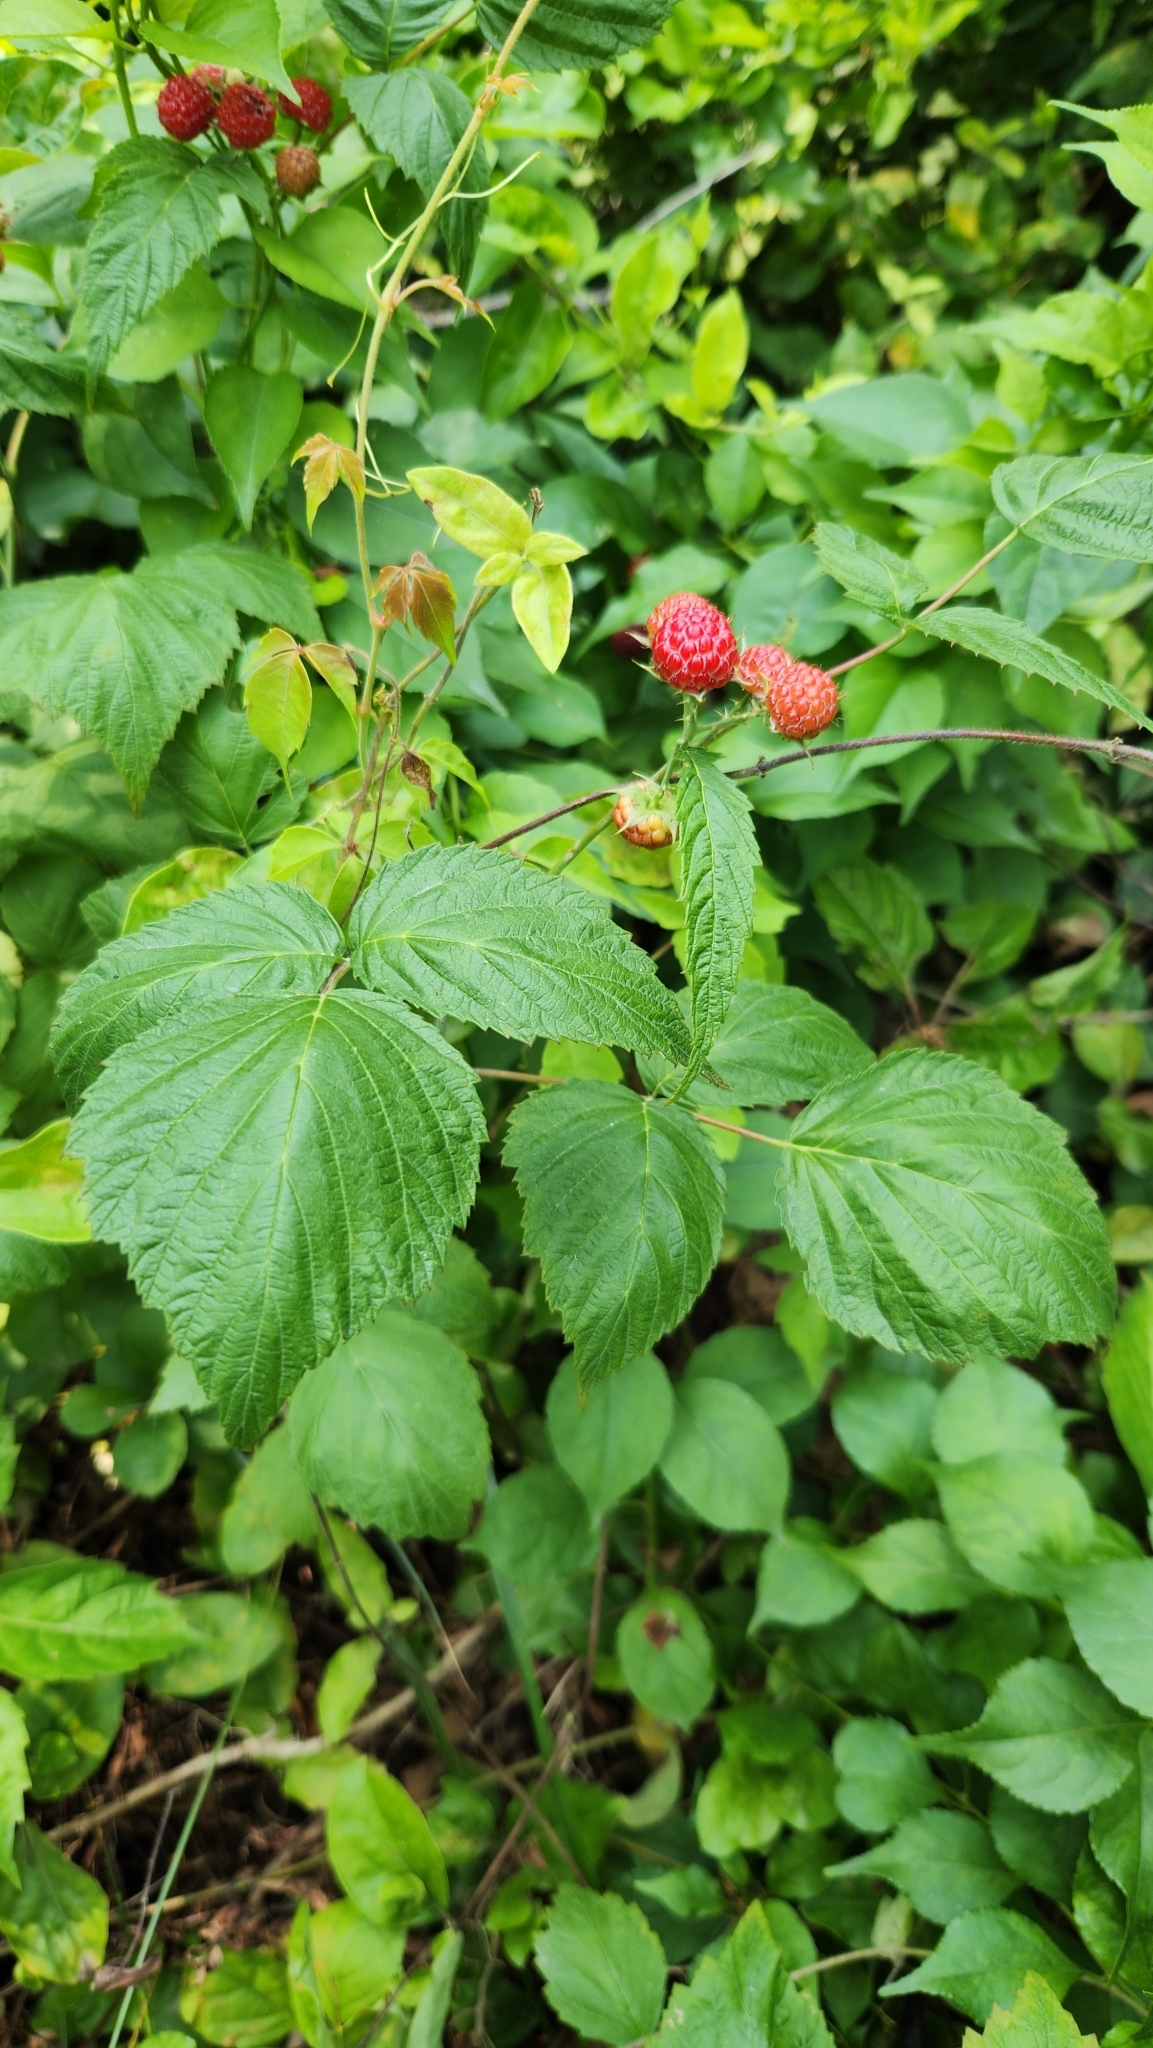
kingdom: Plantae
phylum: Tracheophyta
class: Magnoliopsida
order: Rosales
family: Rosaceae
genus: Rubus
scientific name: Rubus idaeus
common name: Raspberry
